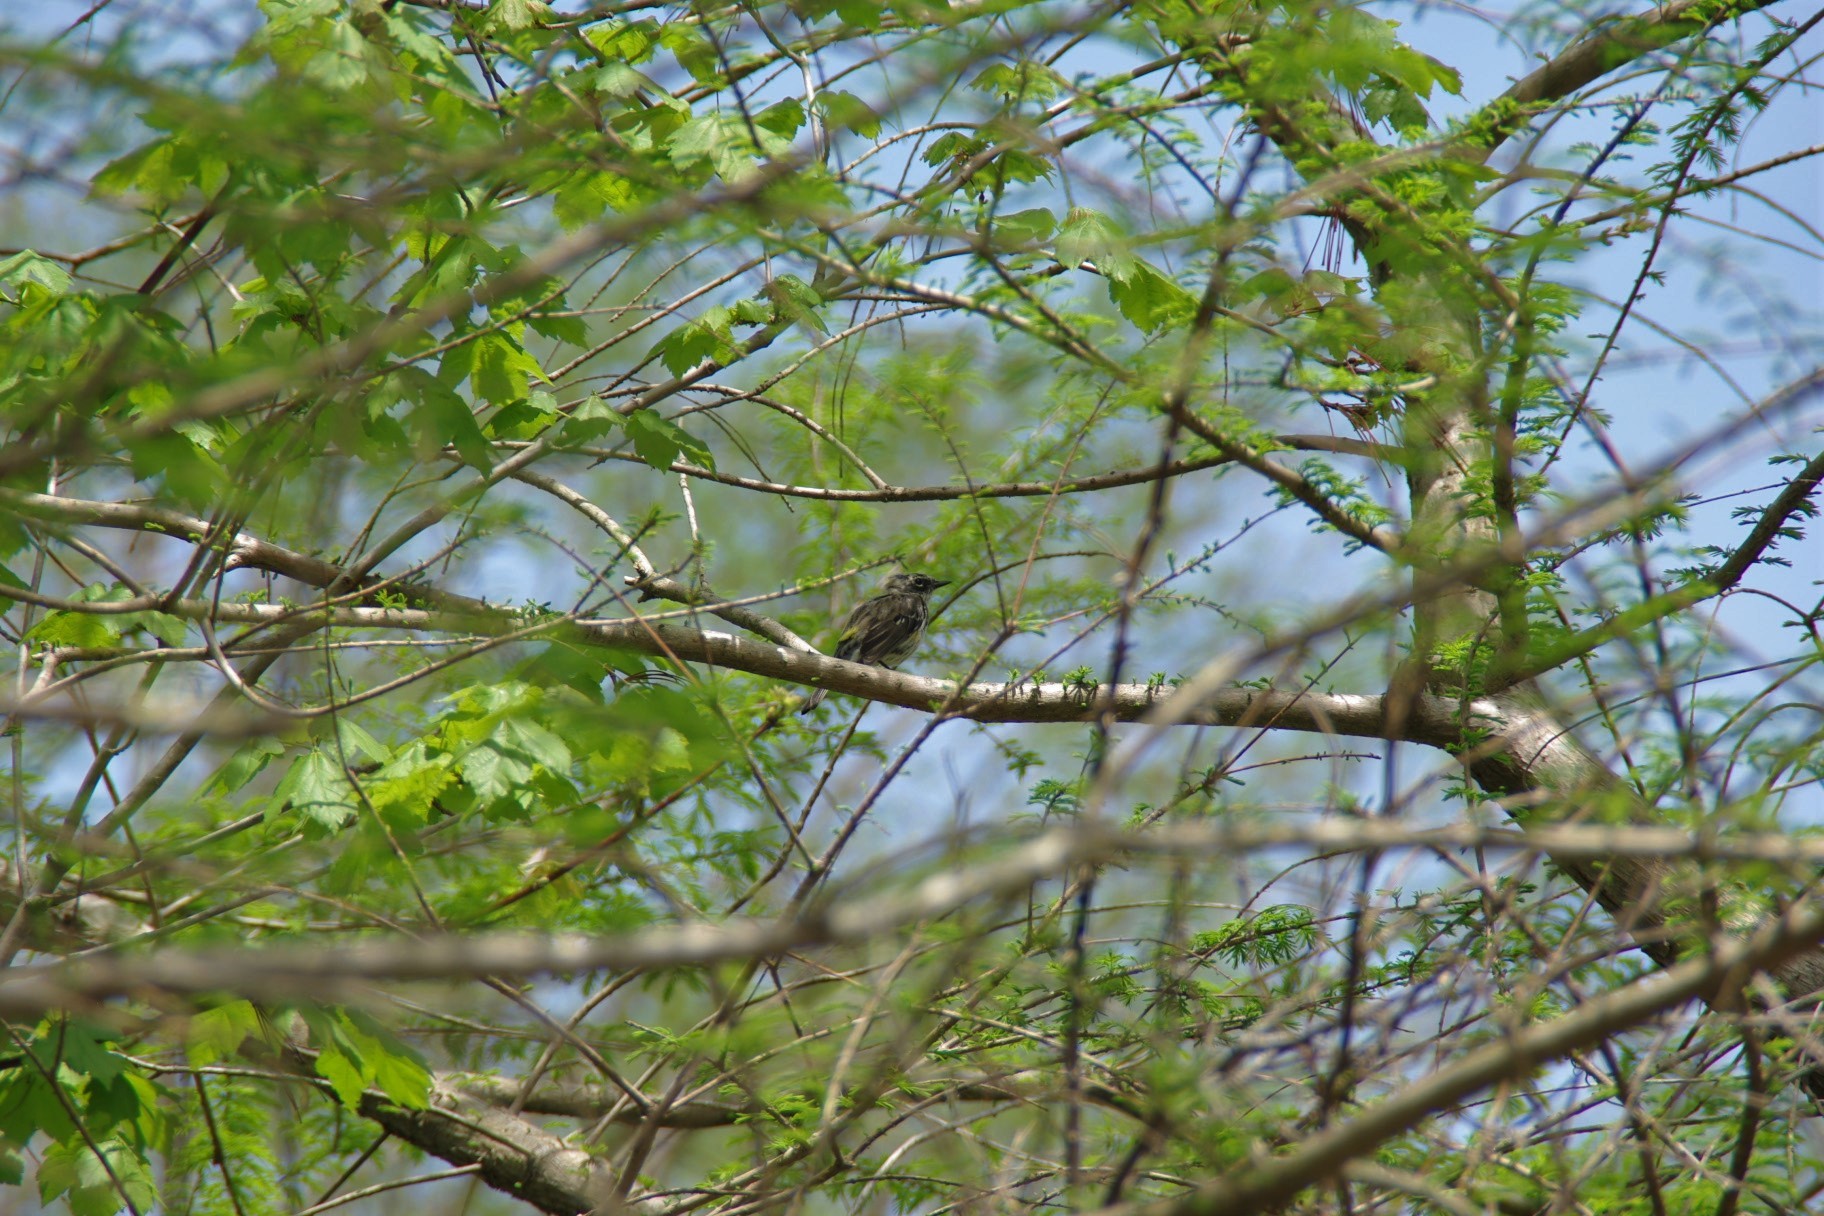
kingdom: Animalia
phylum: Chordata
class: Aves
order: Passeriformes
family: Parulidae
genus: Setophaga
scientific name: Setophaga coronata
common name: Myrtle warbler
